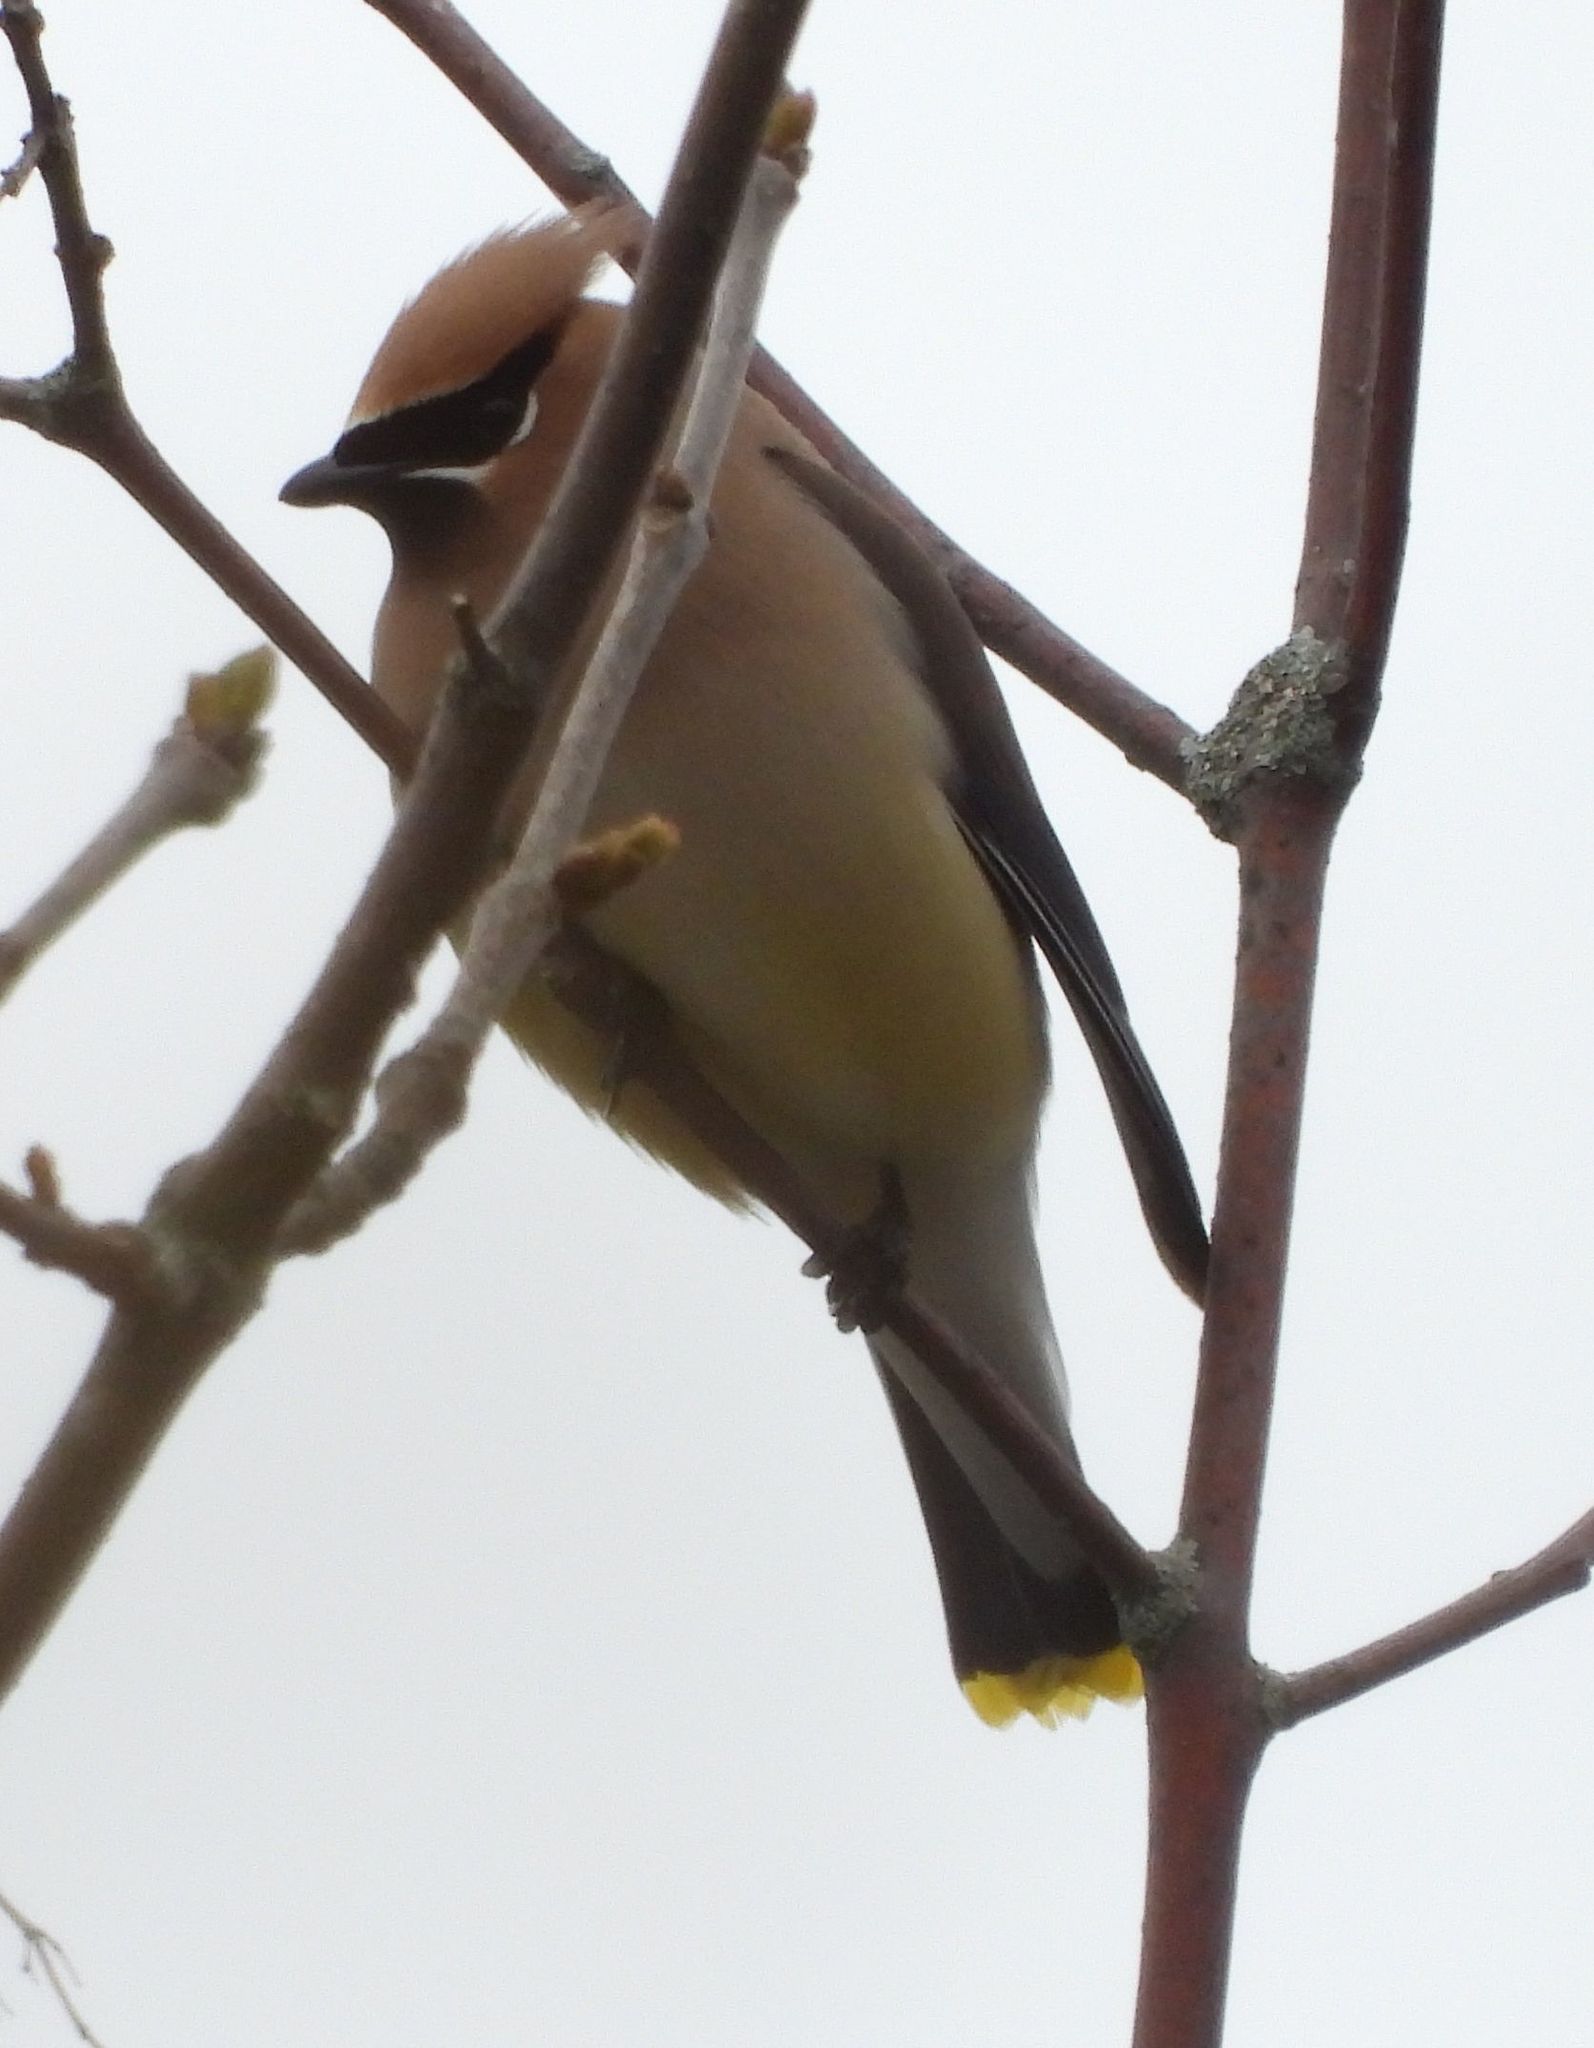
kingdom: Animalia
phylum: Chordata
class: Aves
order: Passeriformes
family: Bombycillidae
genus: Bombycilla
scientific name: Bombycilla cedrorum
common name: Cedar waxwing
